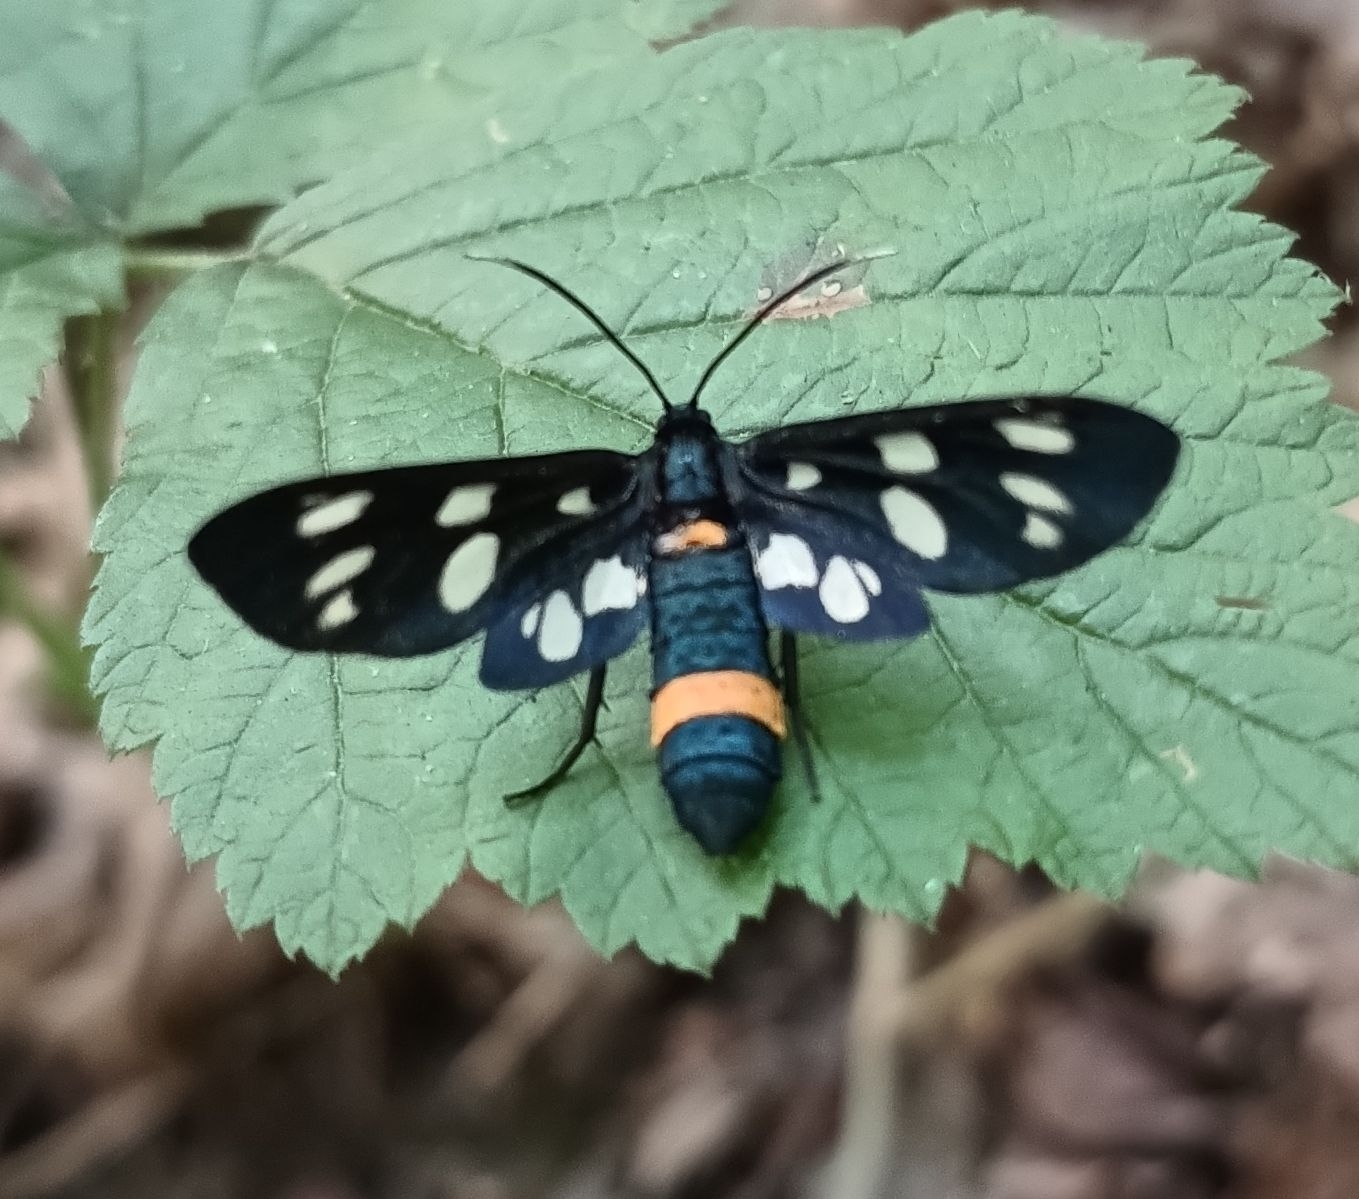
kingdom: Animalia
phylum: Arthropoda
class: Insecta
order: Lepidoptera
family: Erebidae
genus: Amata
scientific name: Amata phegea
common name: Nine-spotted
